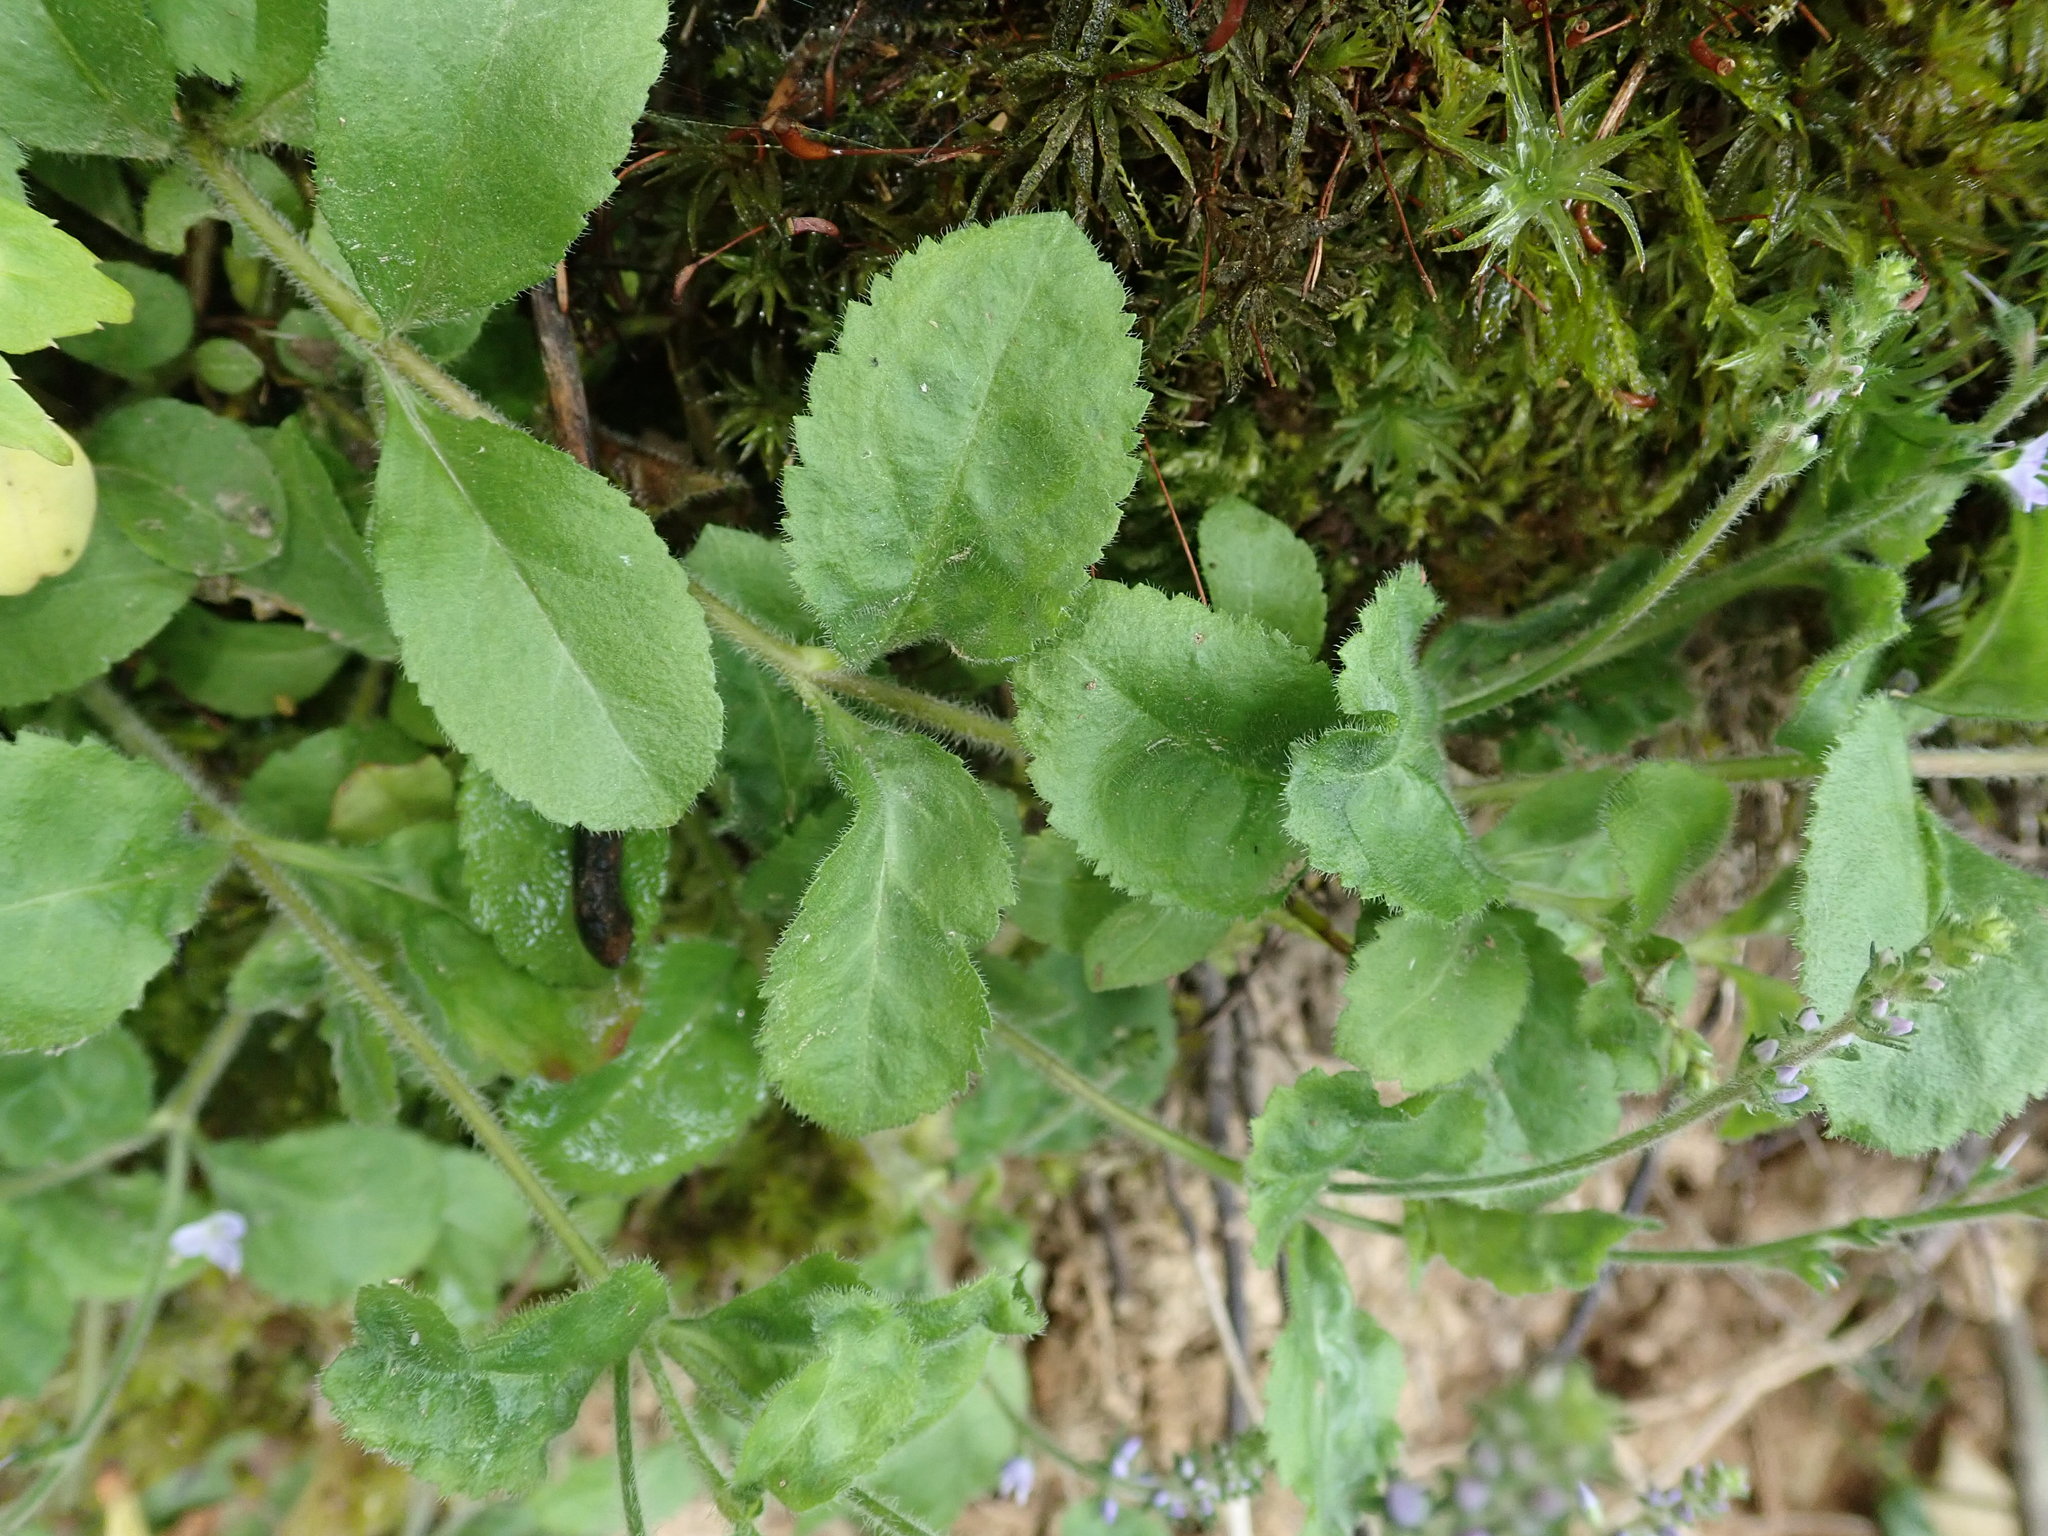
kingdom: Plantae
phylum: Tracheophyta
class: Magnoliopsida
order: Lamiales
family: Plantaginaceae
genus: Veronica
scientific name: Veronica officinalis
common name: Common speedwell
